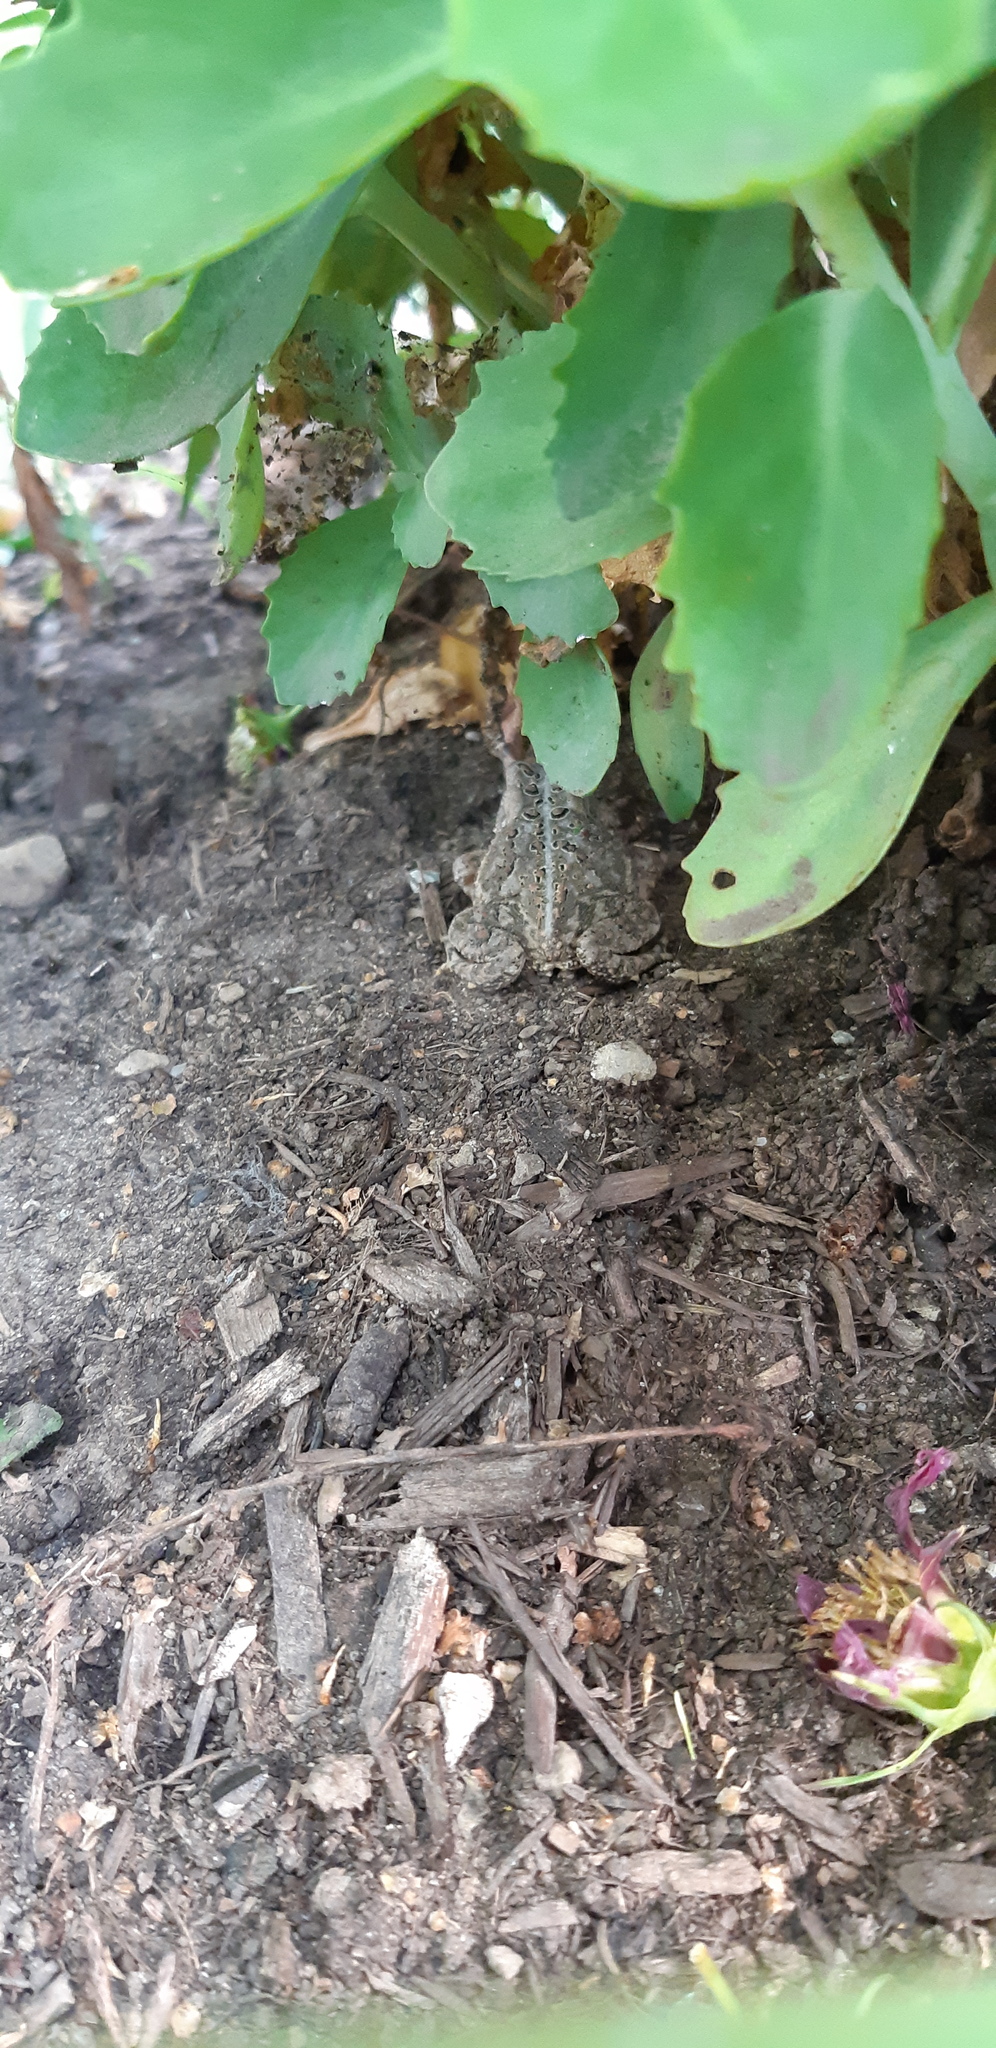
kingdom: Animalia
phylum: Chordata
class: Amphibia
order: Anura
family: Bufonidae
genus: Anaxyrus
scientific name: Anaxyrus americanus
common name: American toad
